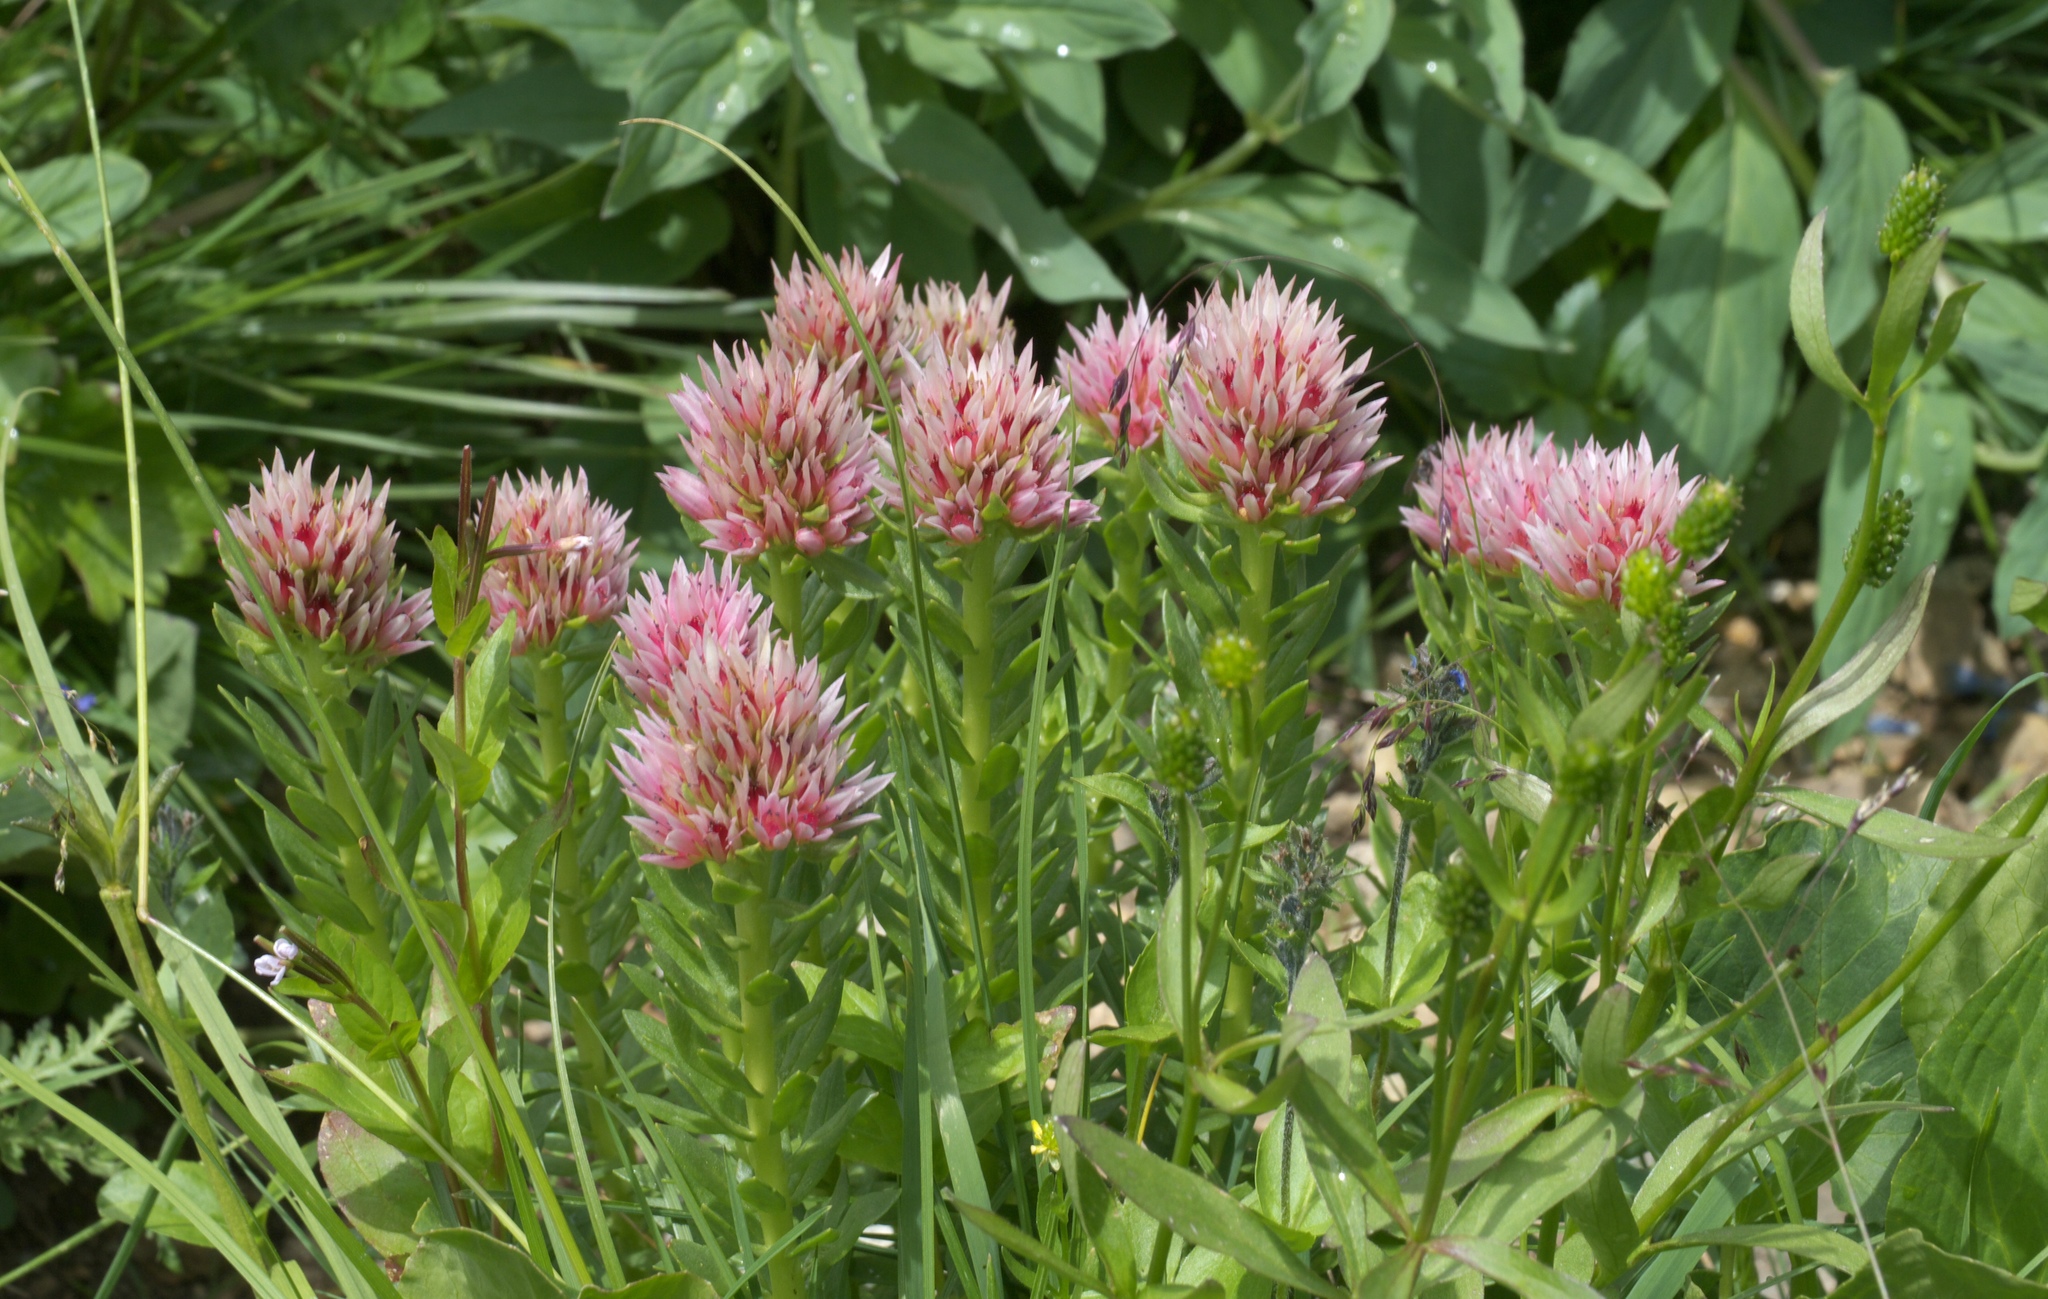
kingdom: Plantae
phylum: Tracheophyta
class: Magnoliopsida
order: Saxifragales
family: Crassulaceae
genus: Rhodiola
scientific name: Rhodiola rhodantha
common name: Red orpine
